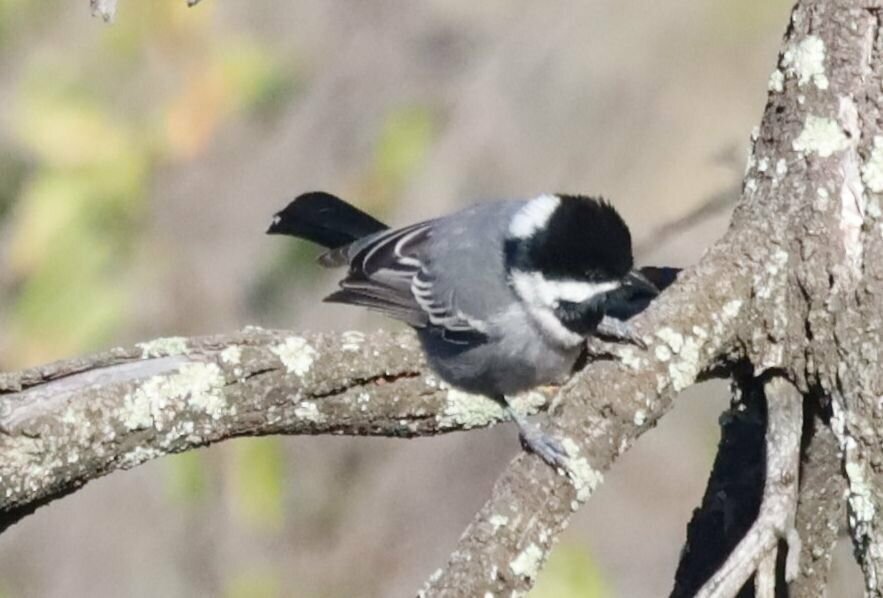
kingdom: Animalia
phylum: Chordata
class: Aves
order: Passeriformes
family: Paridae
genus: Parus
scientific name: Parus cinerascens
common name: Ashy tit
